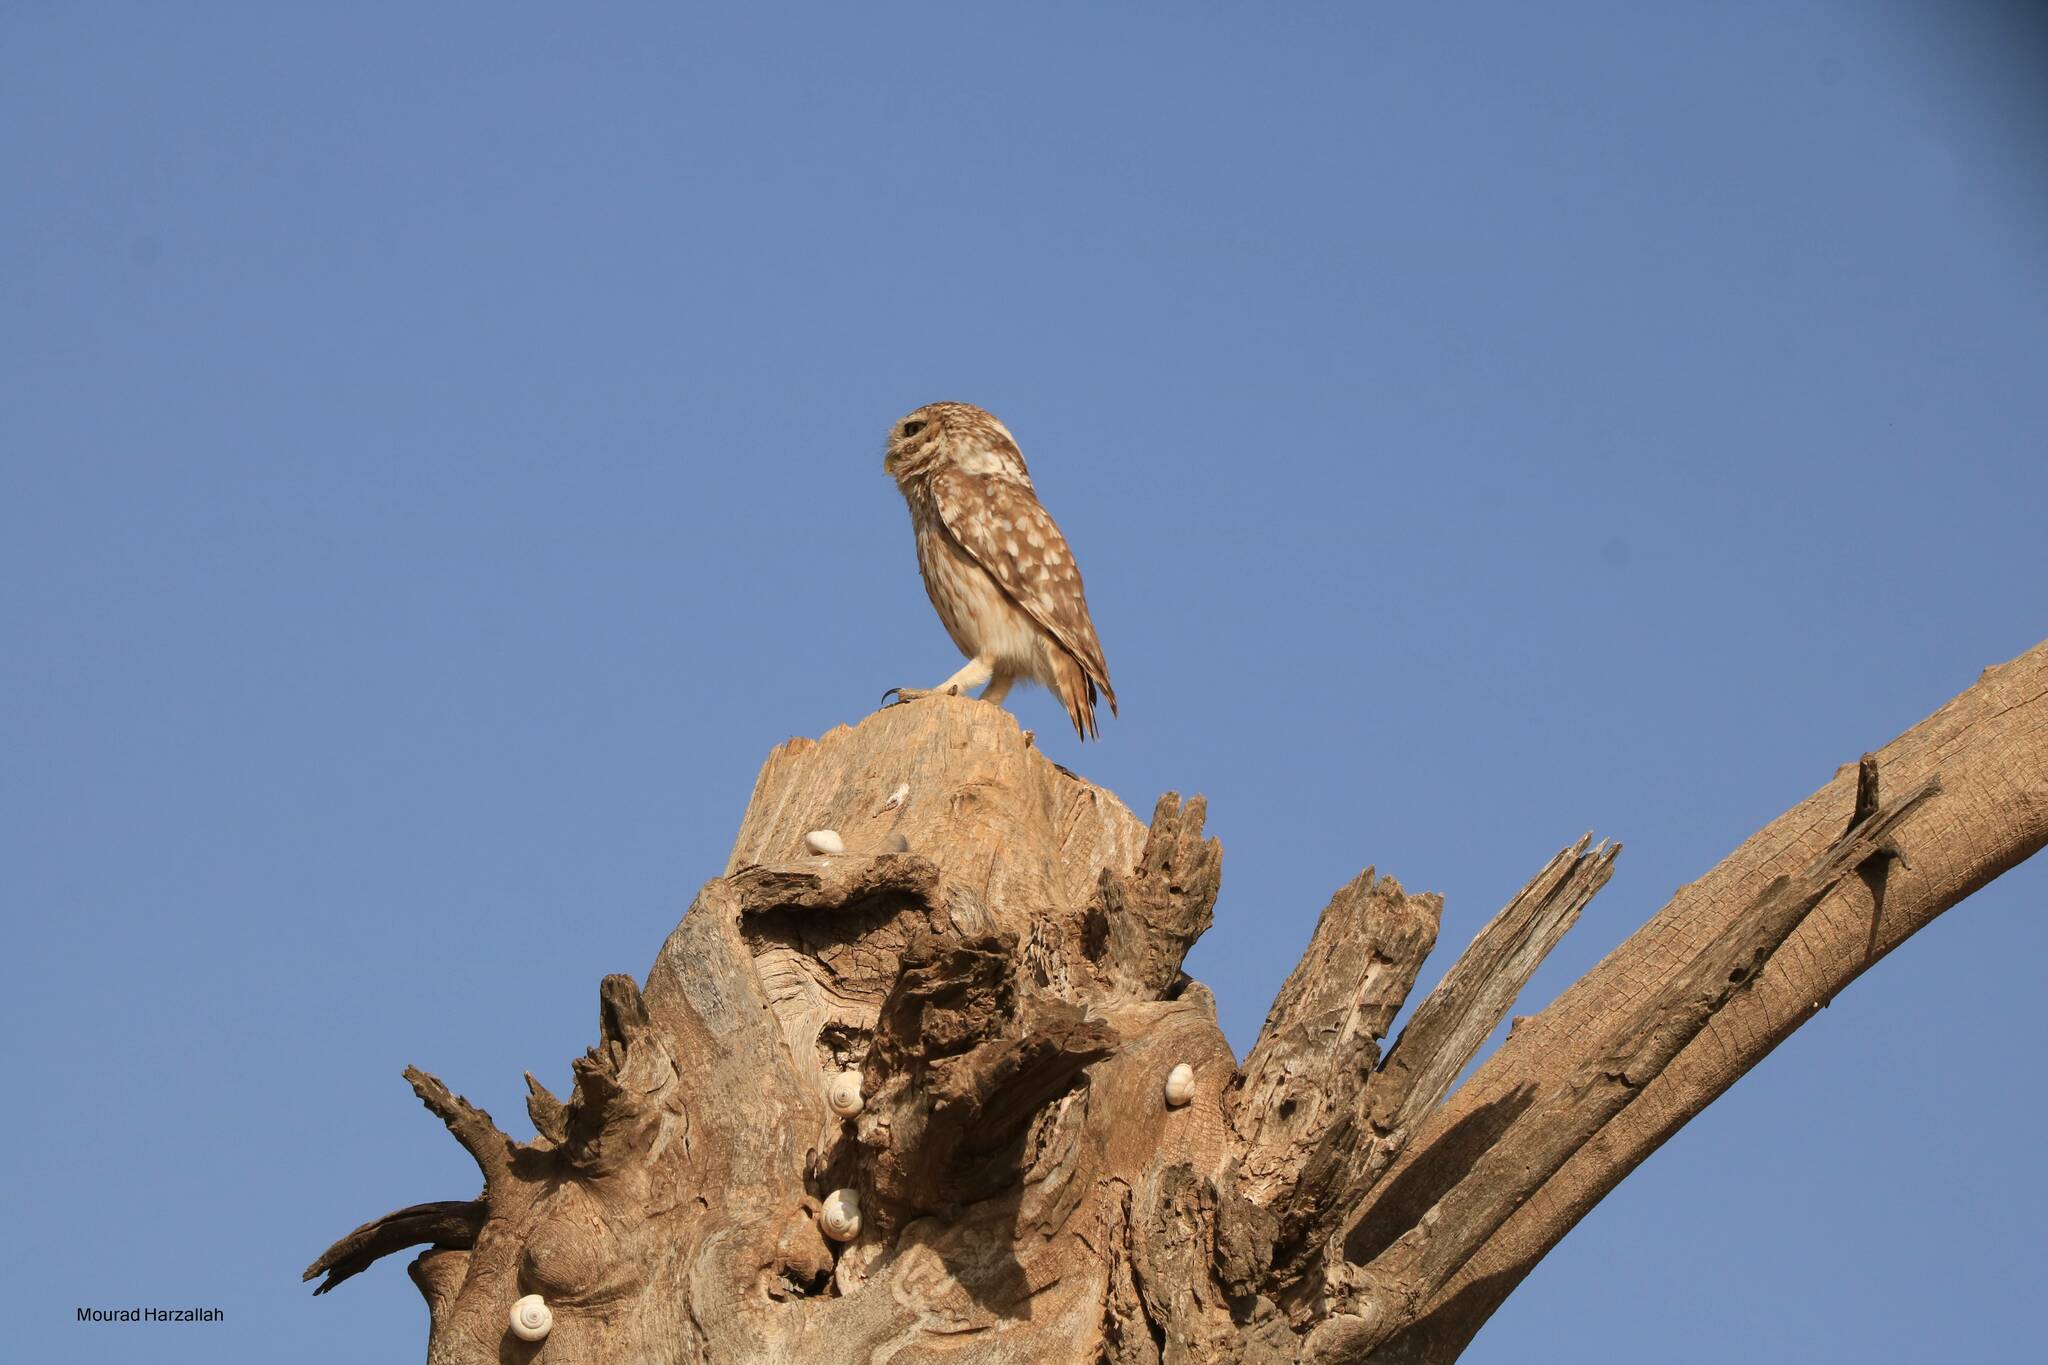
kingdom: Animalia
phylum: Chordata
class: Aves
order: Strigiformes
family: Strigidae
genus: Athene
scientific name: Athene noctua
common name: Little owl
